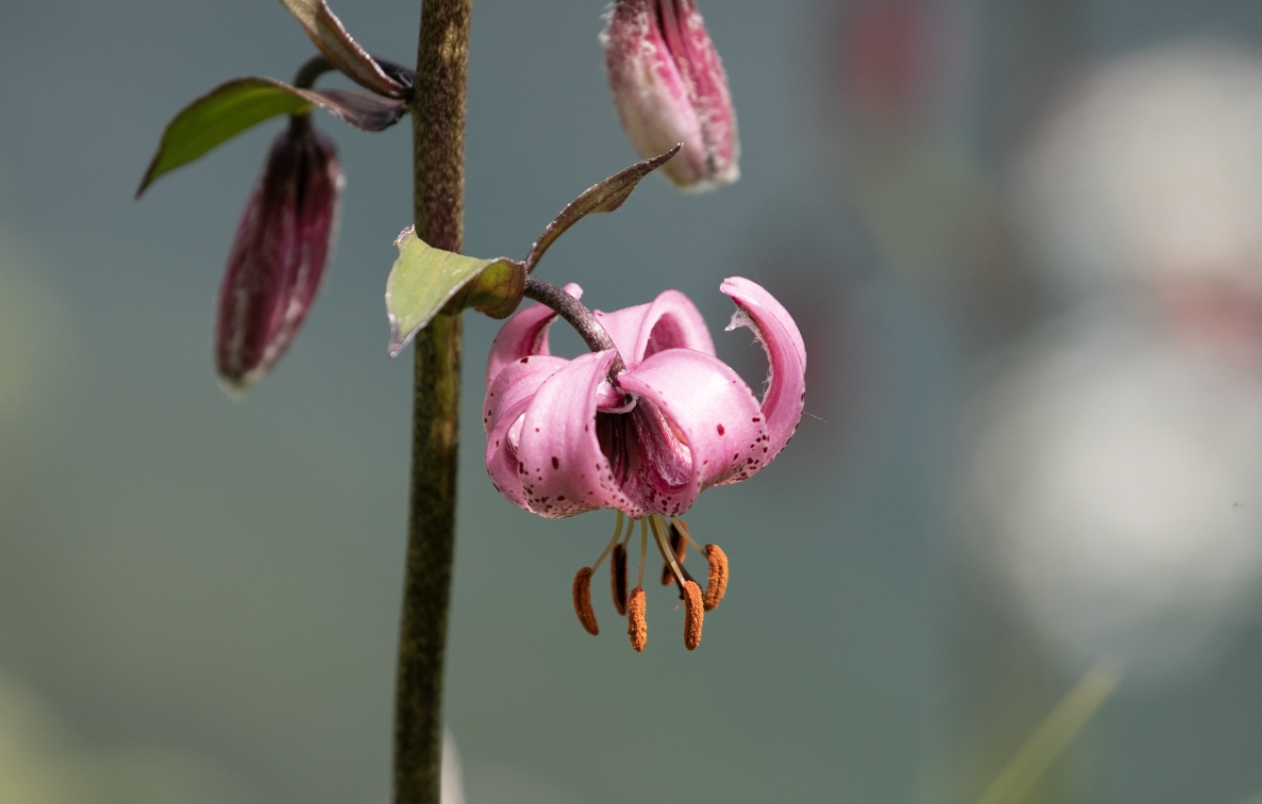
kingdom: Plantae
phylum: Tracheophyta
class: Liliopsida
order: Liliales
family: Liliaceae
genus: Lilium
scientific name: Lilium martagon
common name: Martagon lily
